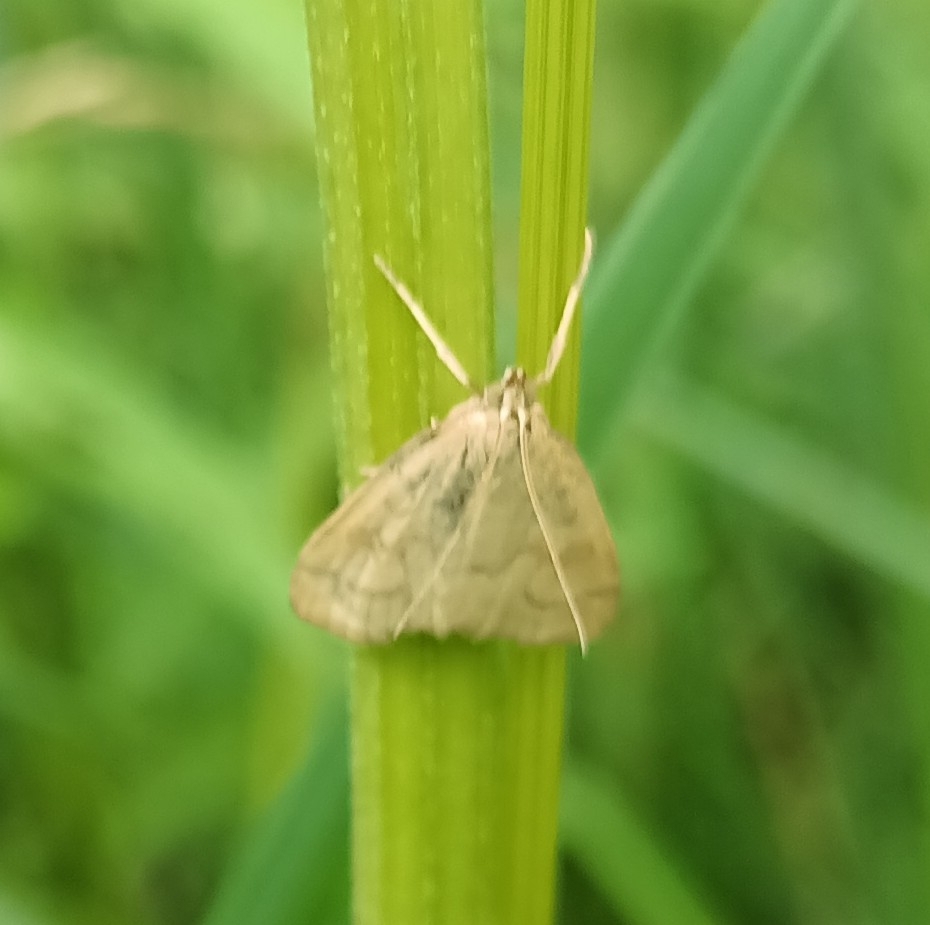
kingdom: Animalia
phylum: Arthropoda
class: Insecta
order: Lepidoptera
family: Crambidae
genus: Udea
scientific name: Udea lutealis
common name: Pale straw pearl
